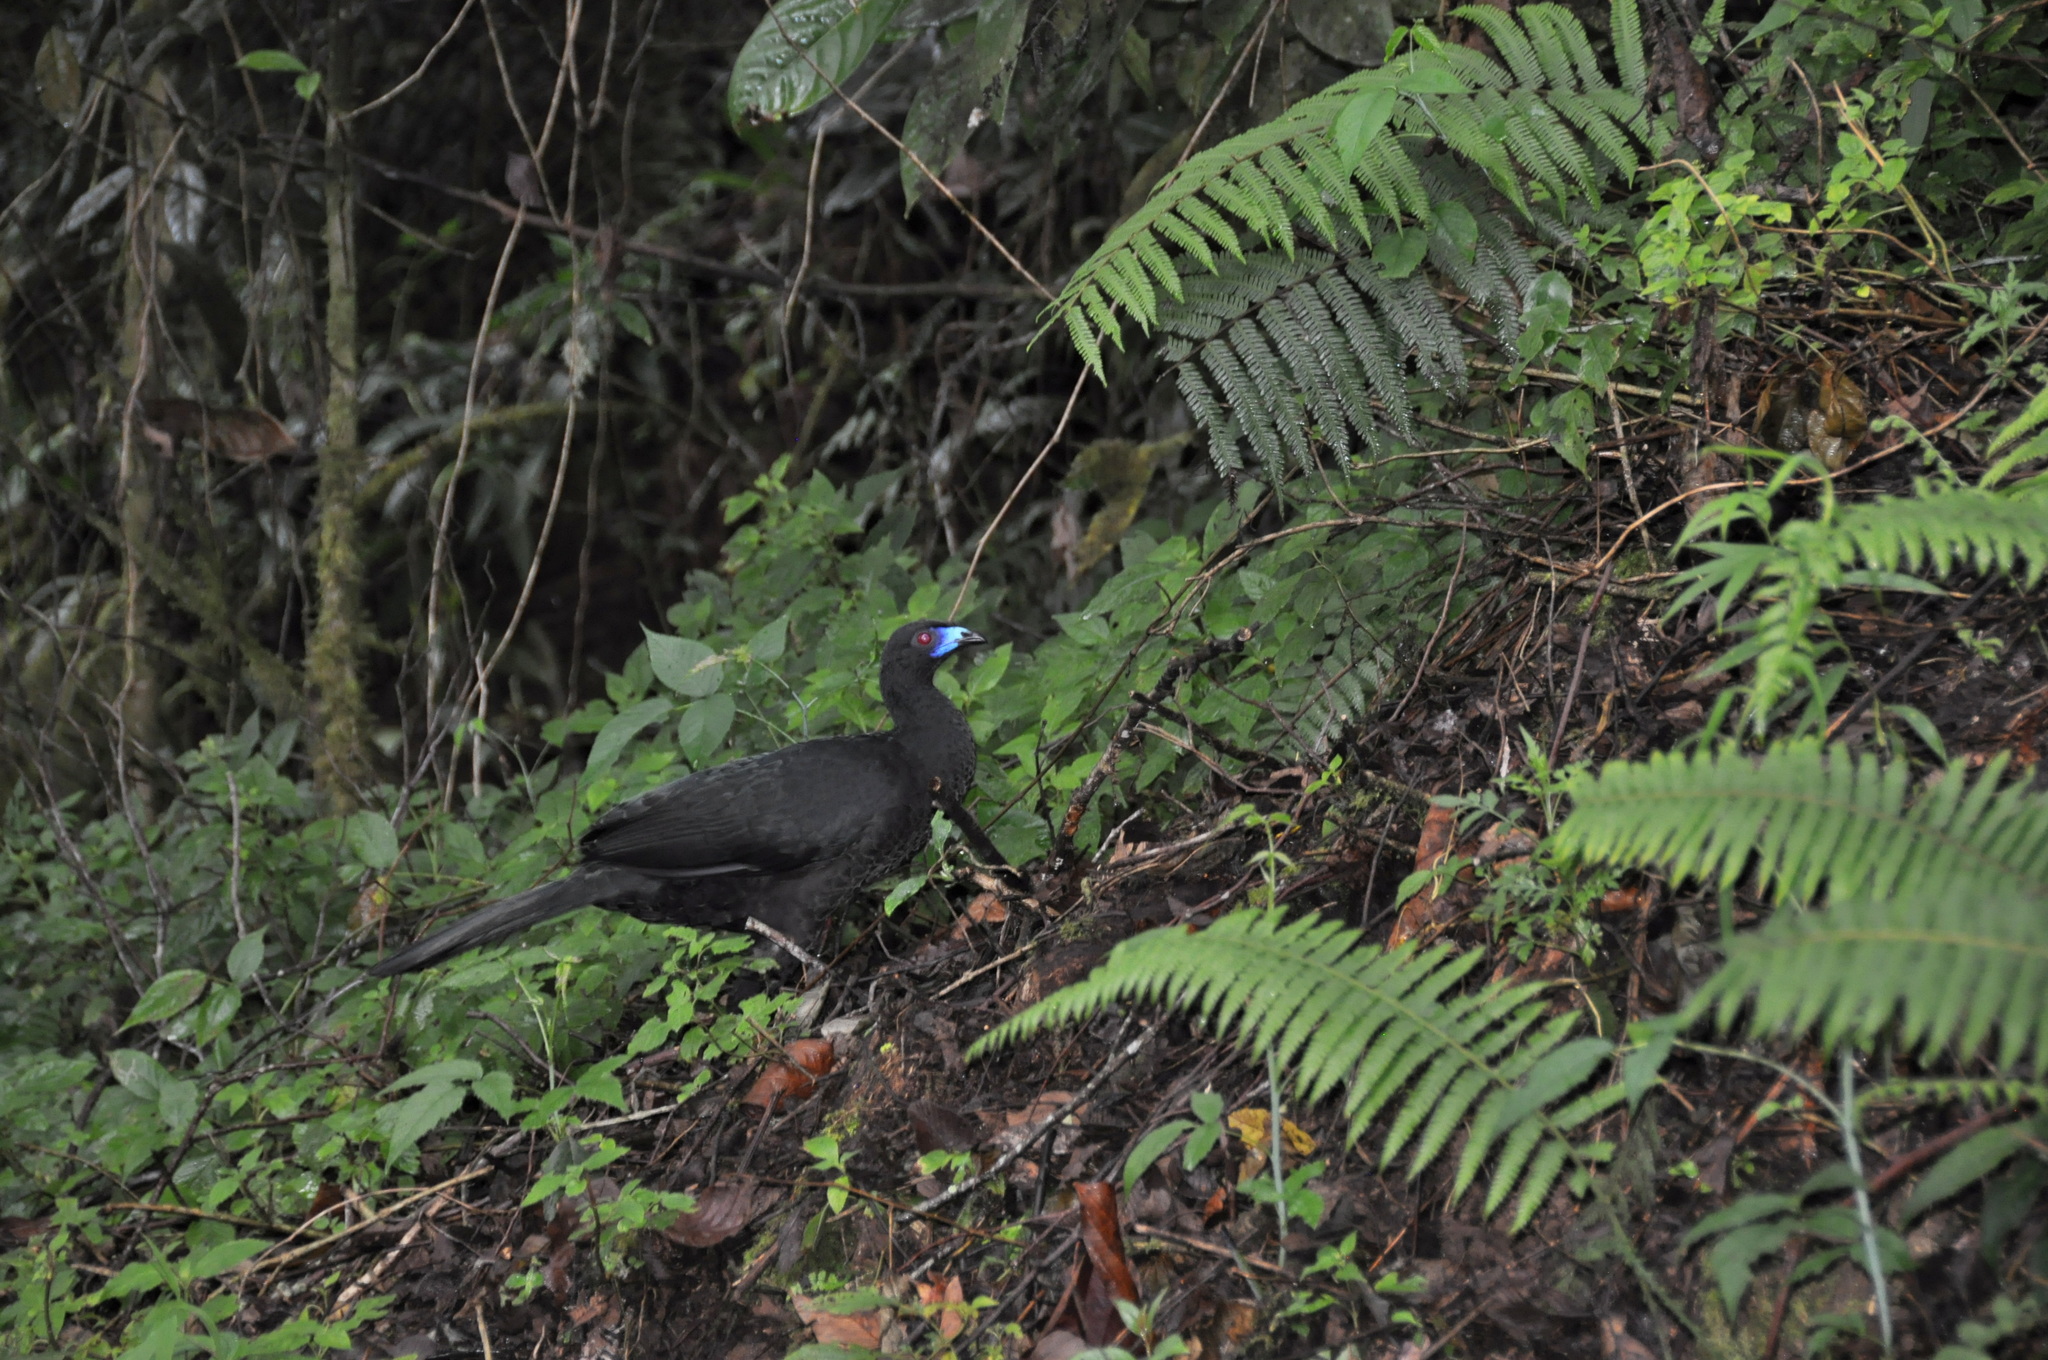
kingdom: Animalia
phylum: Chordata
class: Aves
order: Galliformes
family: Cracidae
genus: Chamaepetes
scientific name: Chamaepetes unicolor
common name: Black guan
